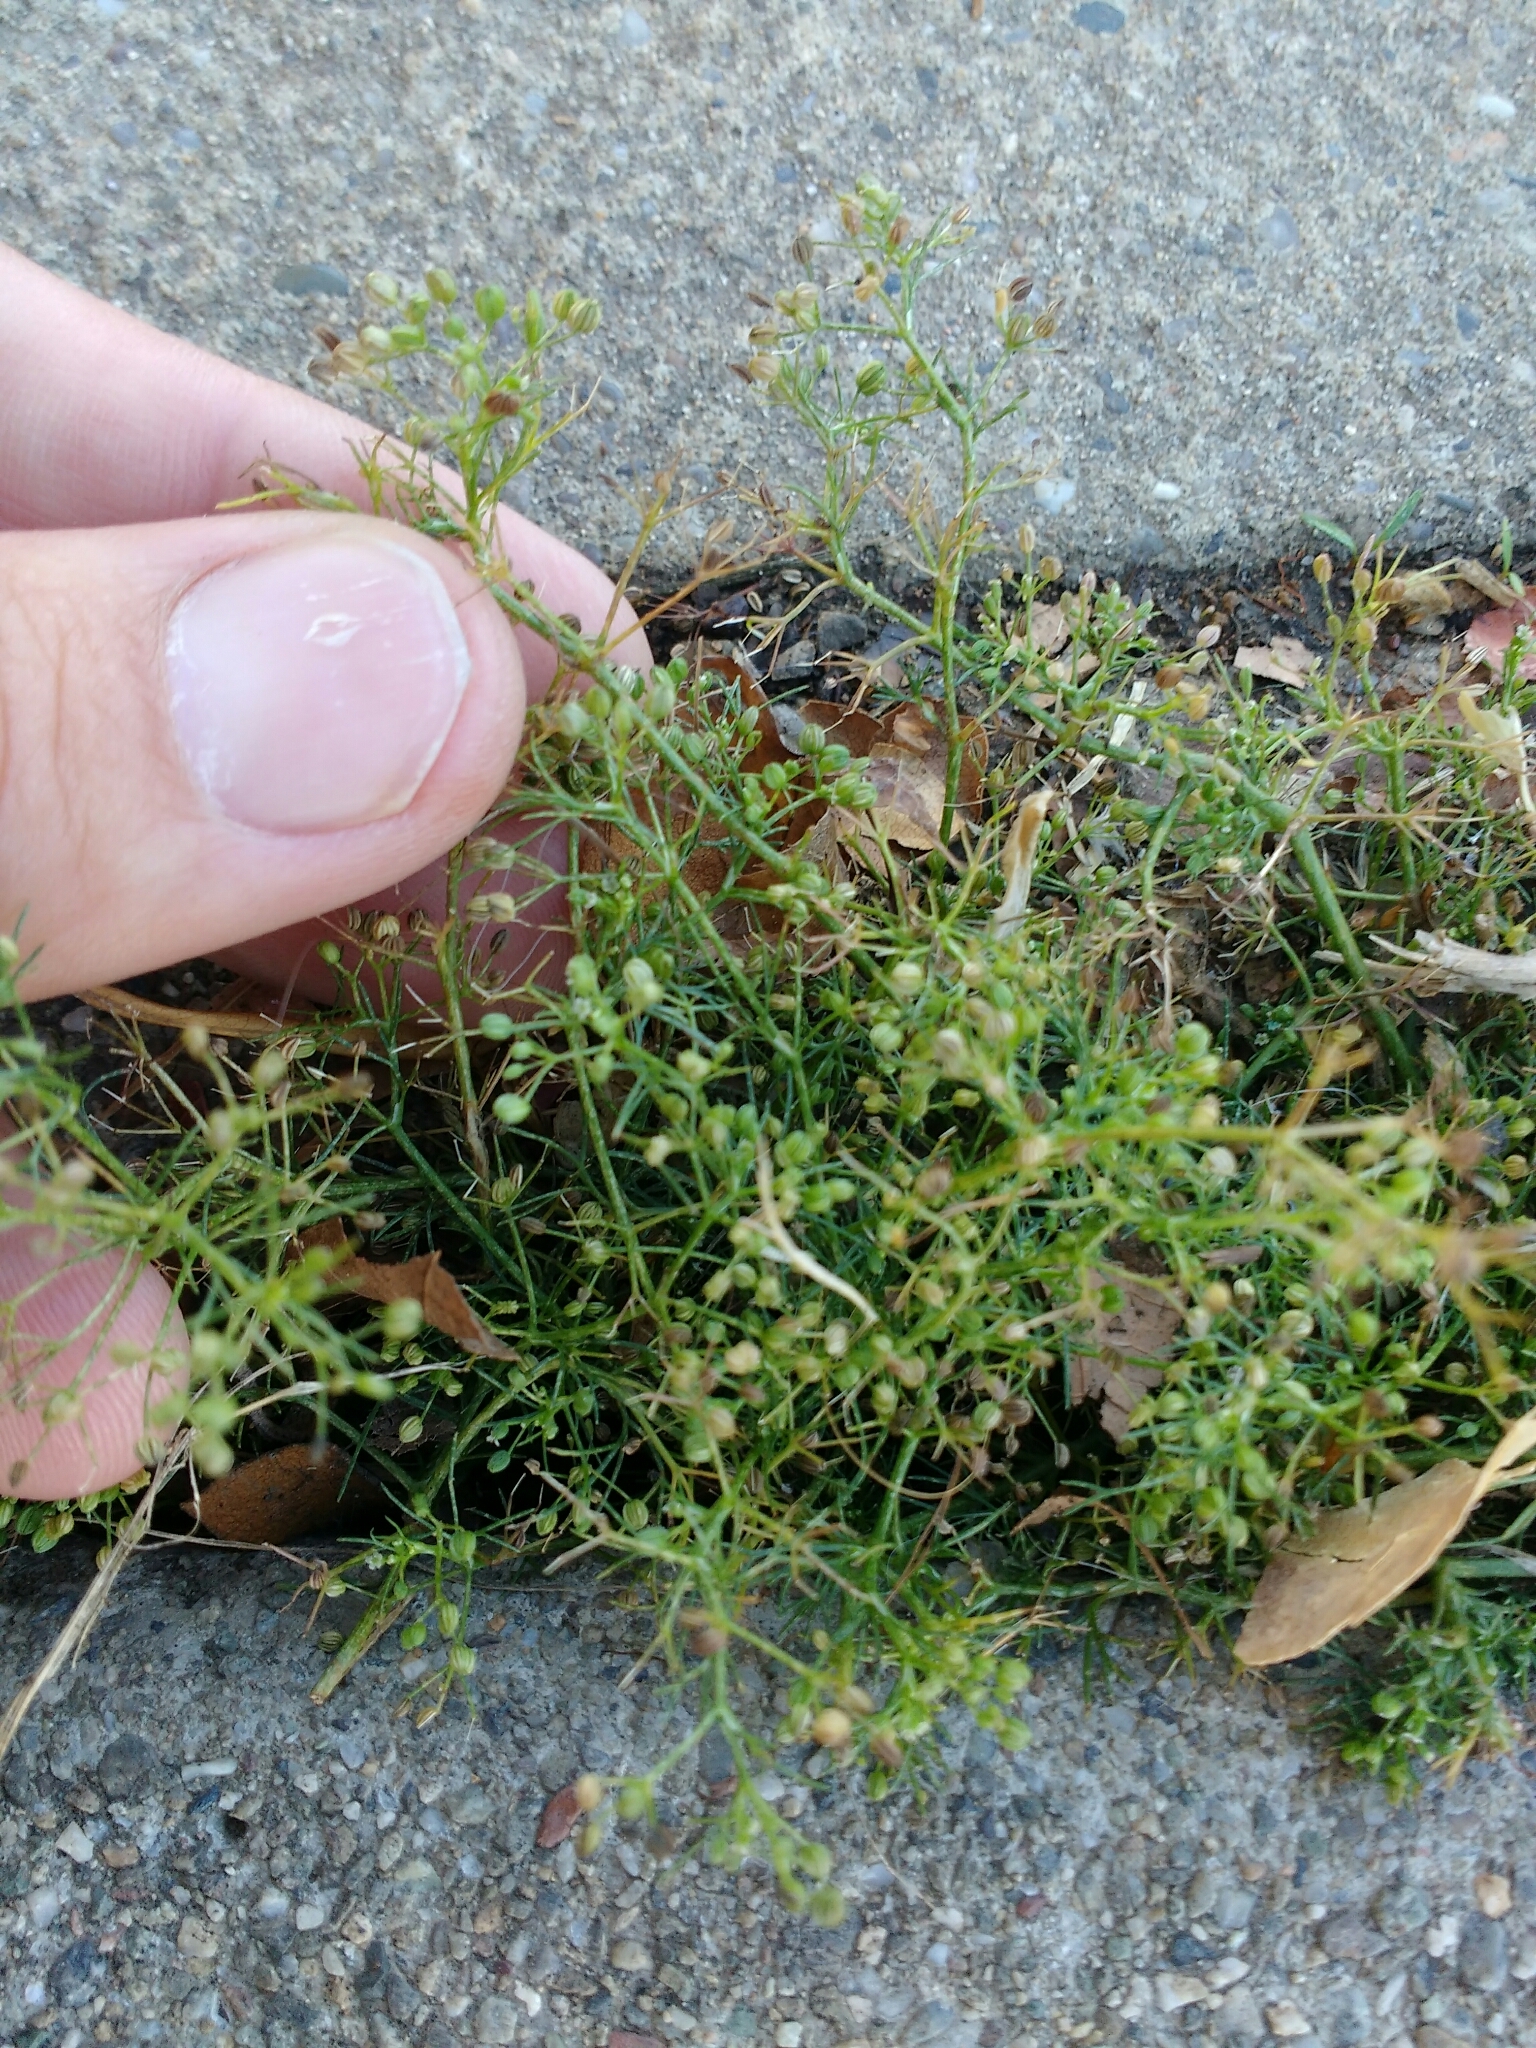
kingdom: Plantae
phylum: Tracheophyta
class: Magnoliopsida
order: Apiales
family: Apiaceae
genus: Cyclospermum
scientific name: Cyclospermum leptophyllum
